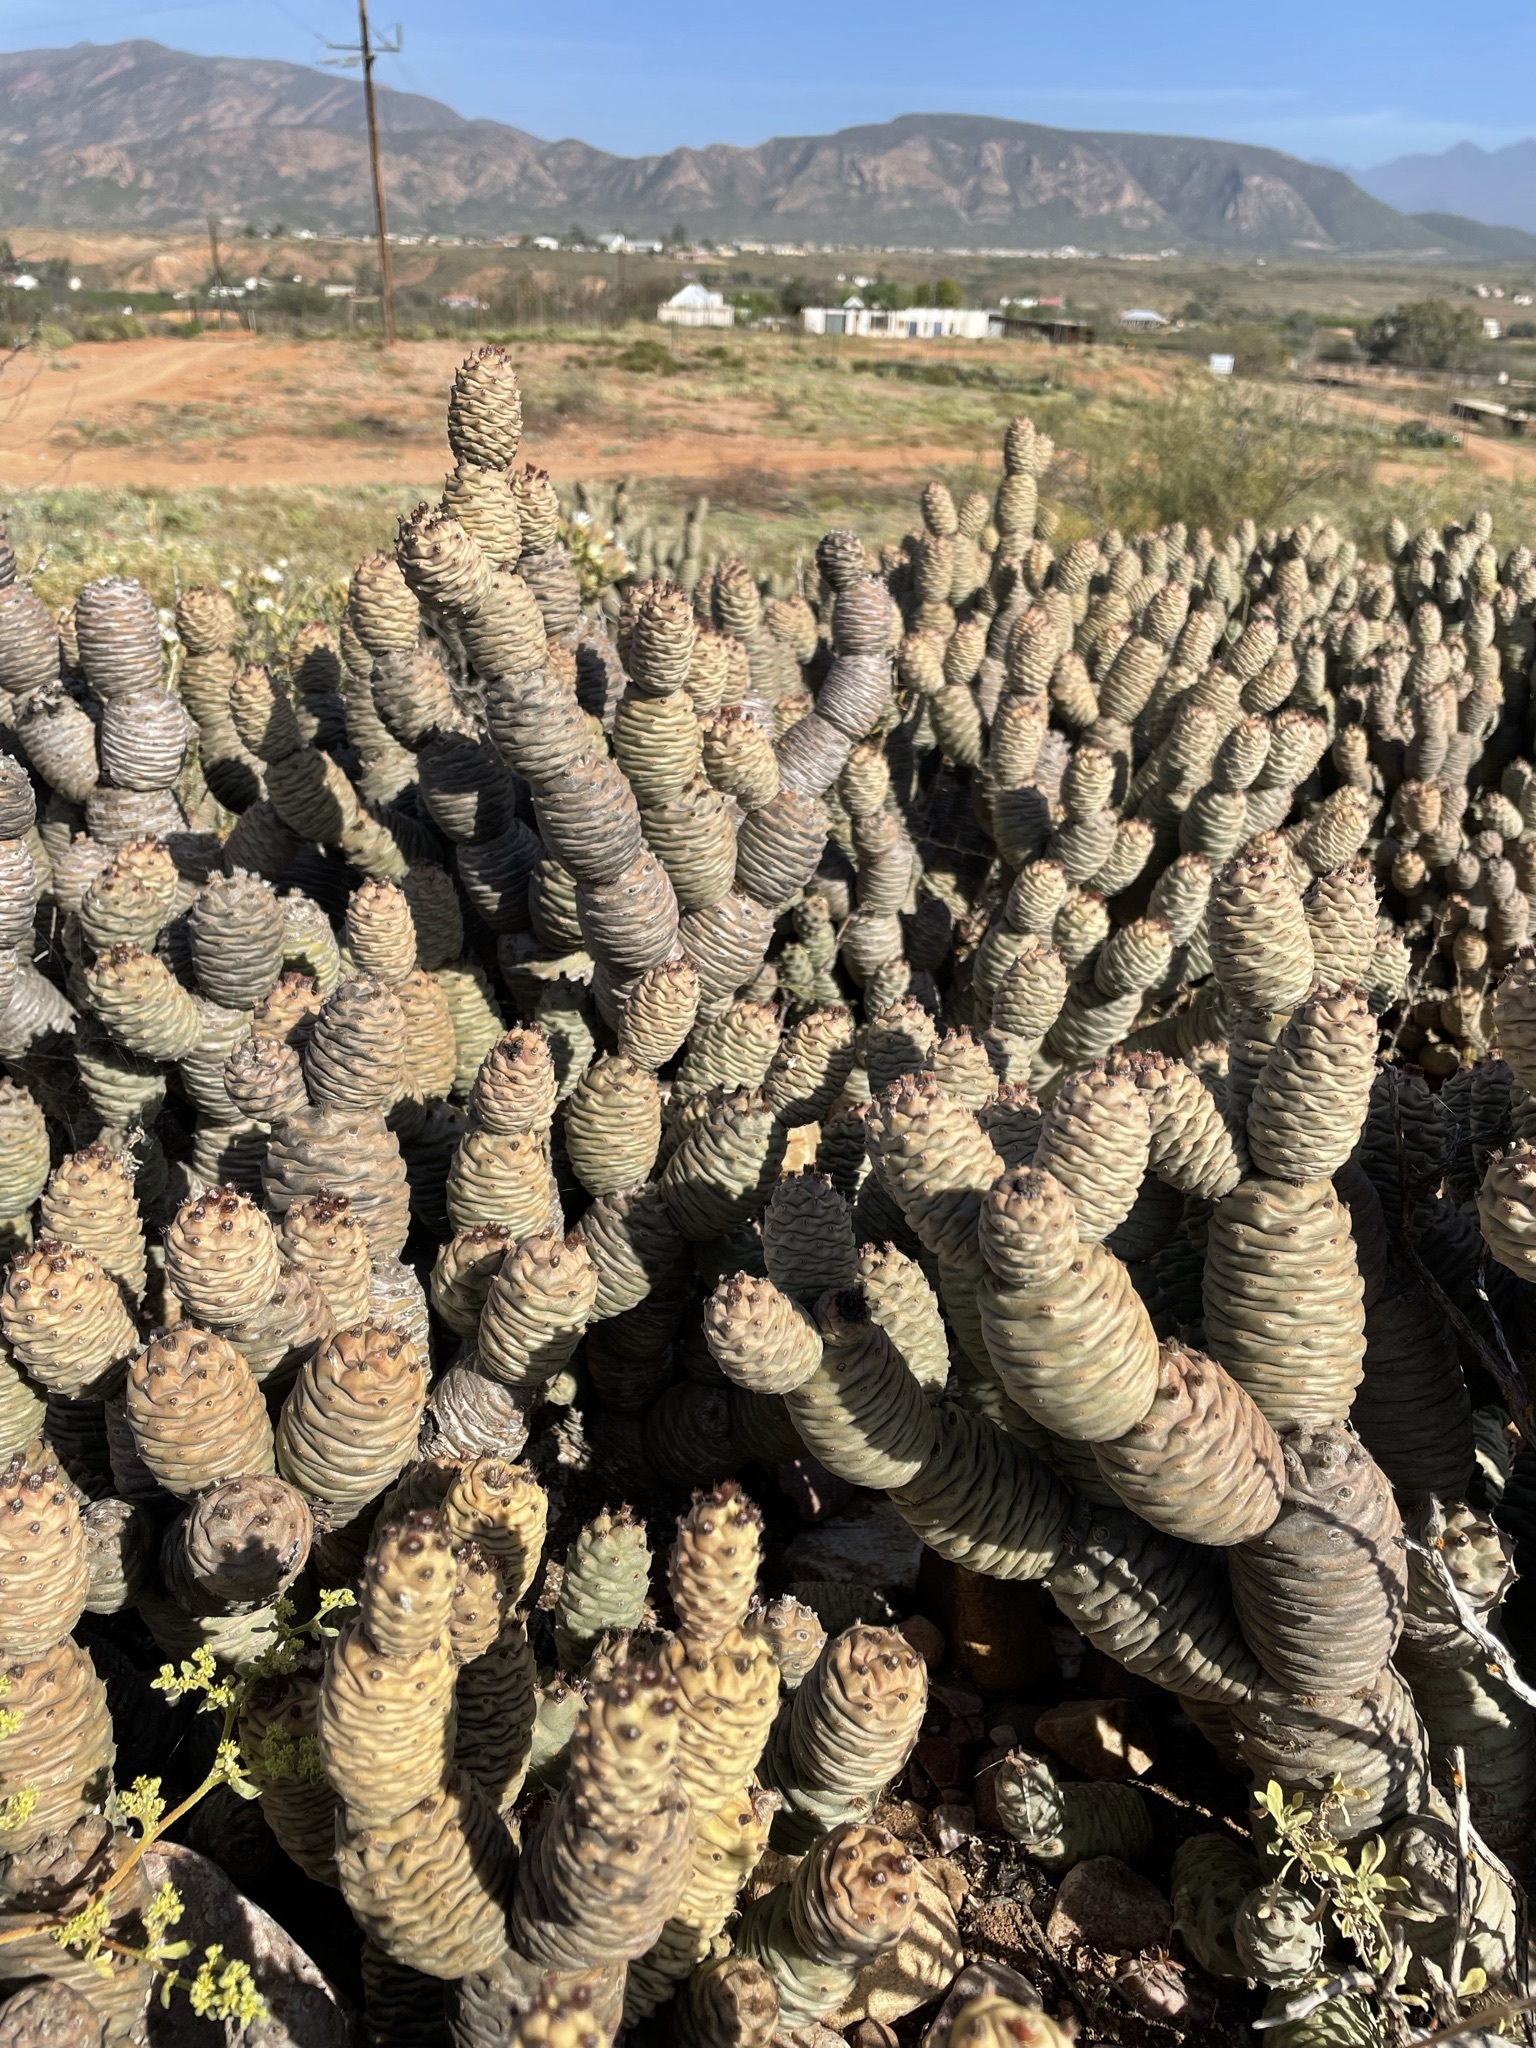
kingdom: Plantae
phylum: Tracheophyta
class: Magnoliopsida
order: Caryophyllales
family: Cactaceae
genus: Tephrocactus
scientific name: Tephrocactus articulatus
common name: Paper cactus
